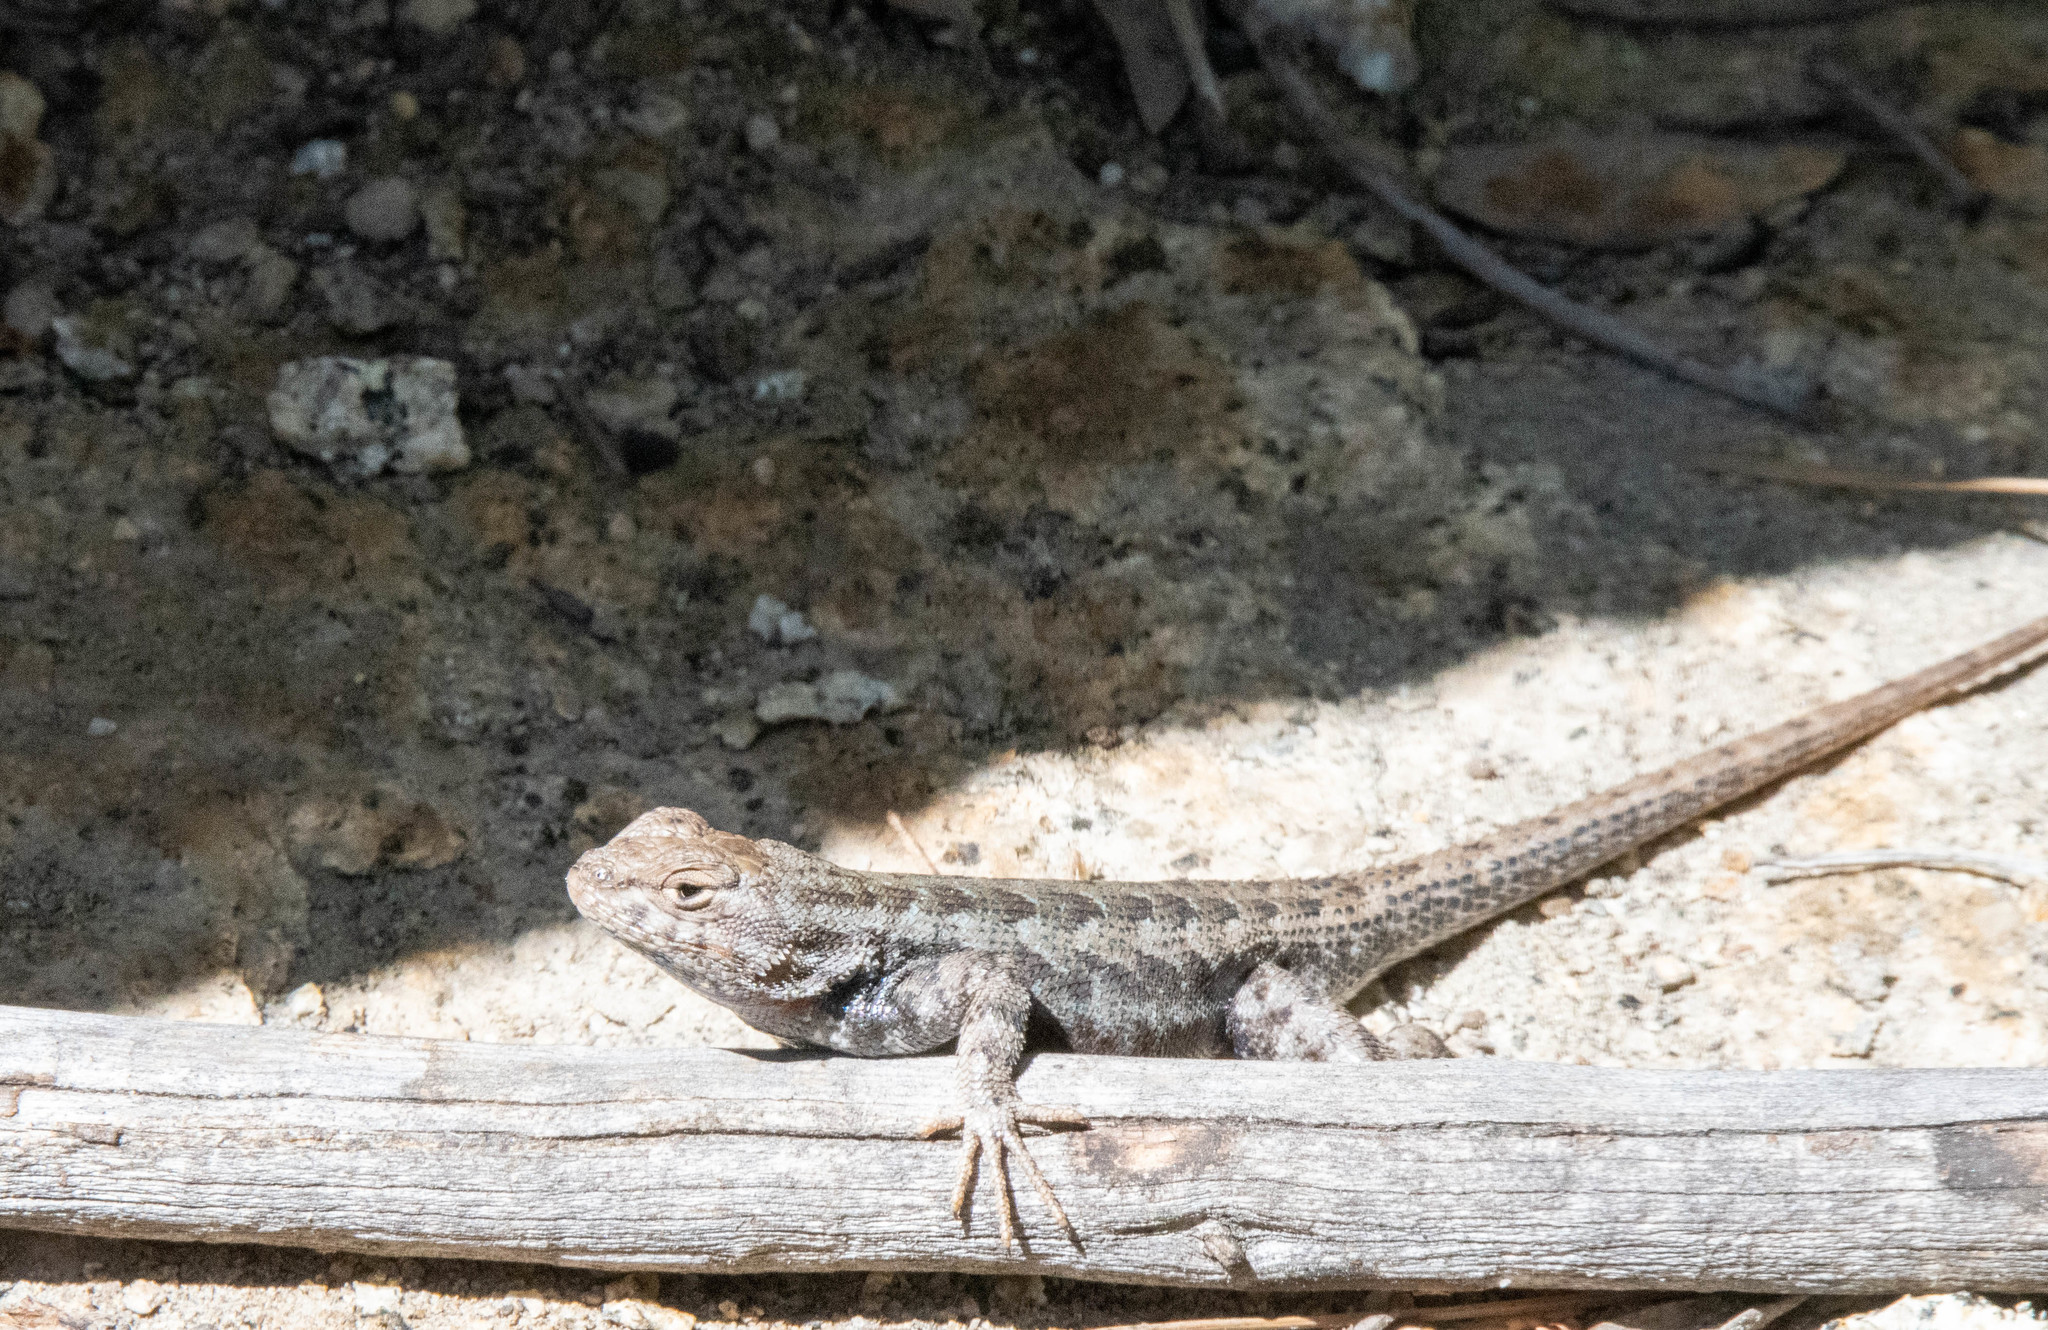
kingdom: Animalia
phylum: Chordata
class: Squamata
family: Phrynosomatidae
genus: Sceloporus
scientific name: Sceloporus graciosus
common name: Sagebrush lizard
